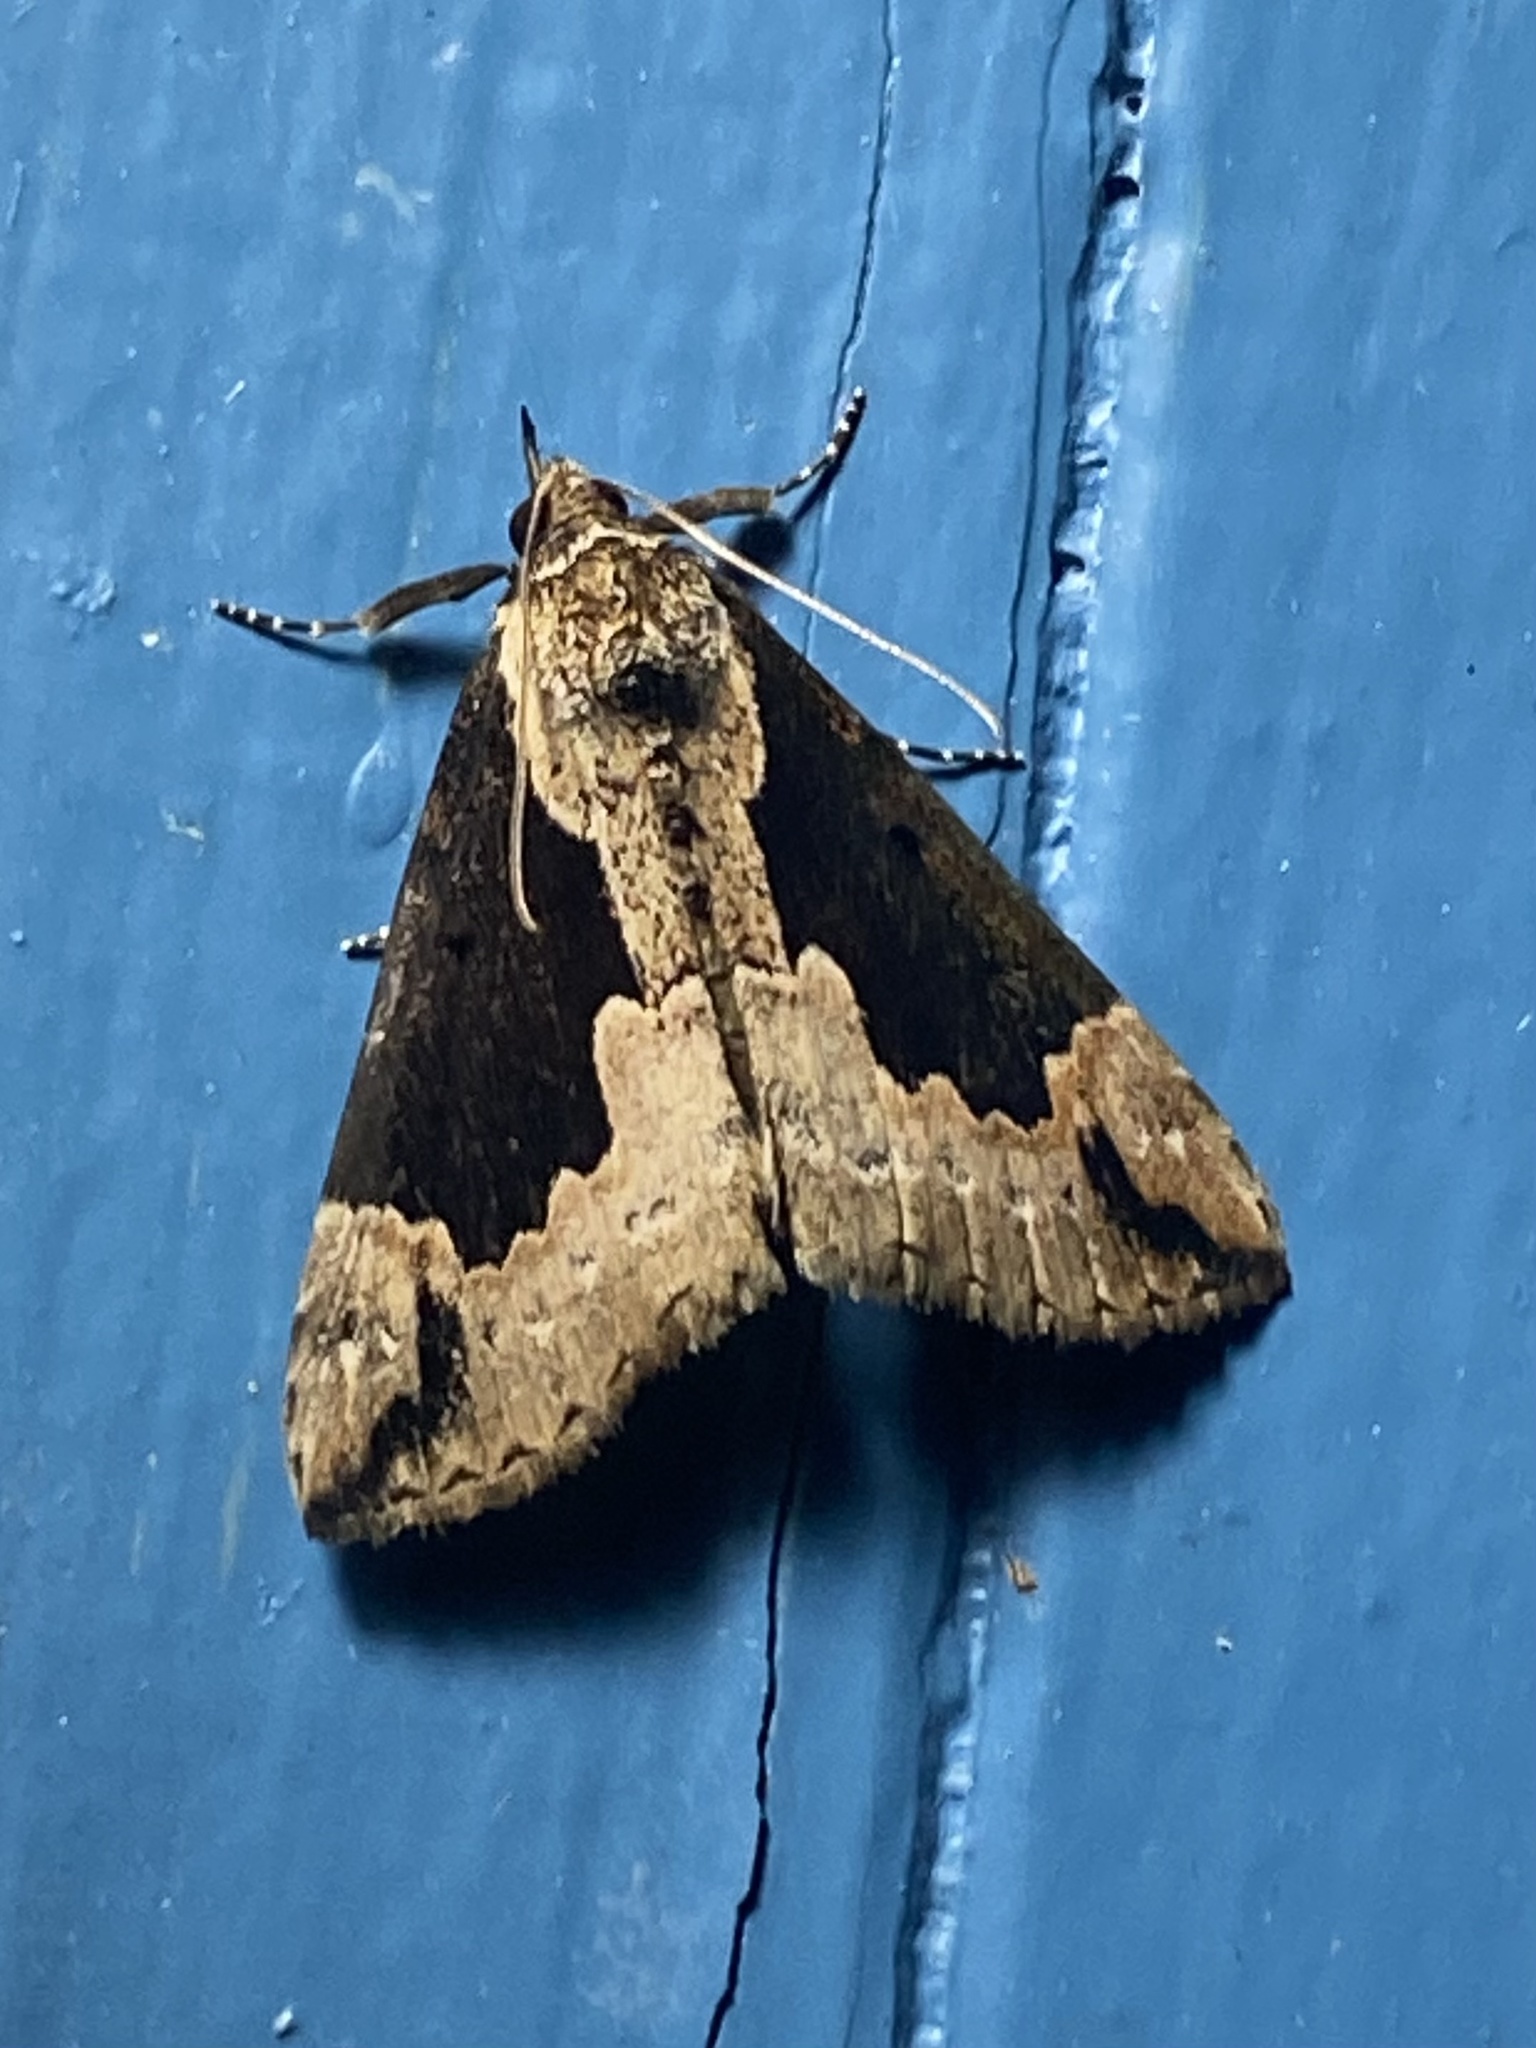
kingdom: Animalia
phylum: Arthropoda
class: Insecta
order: Lepidoptera
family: Erebidae
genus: Hypena
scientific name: Hypena baltimoralis
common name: Baltimore snout
